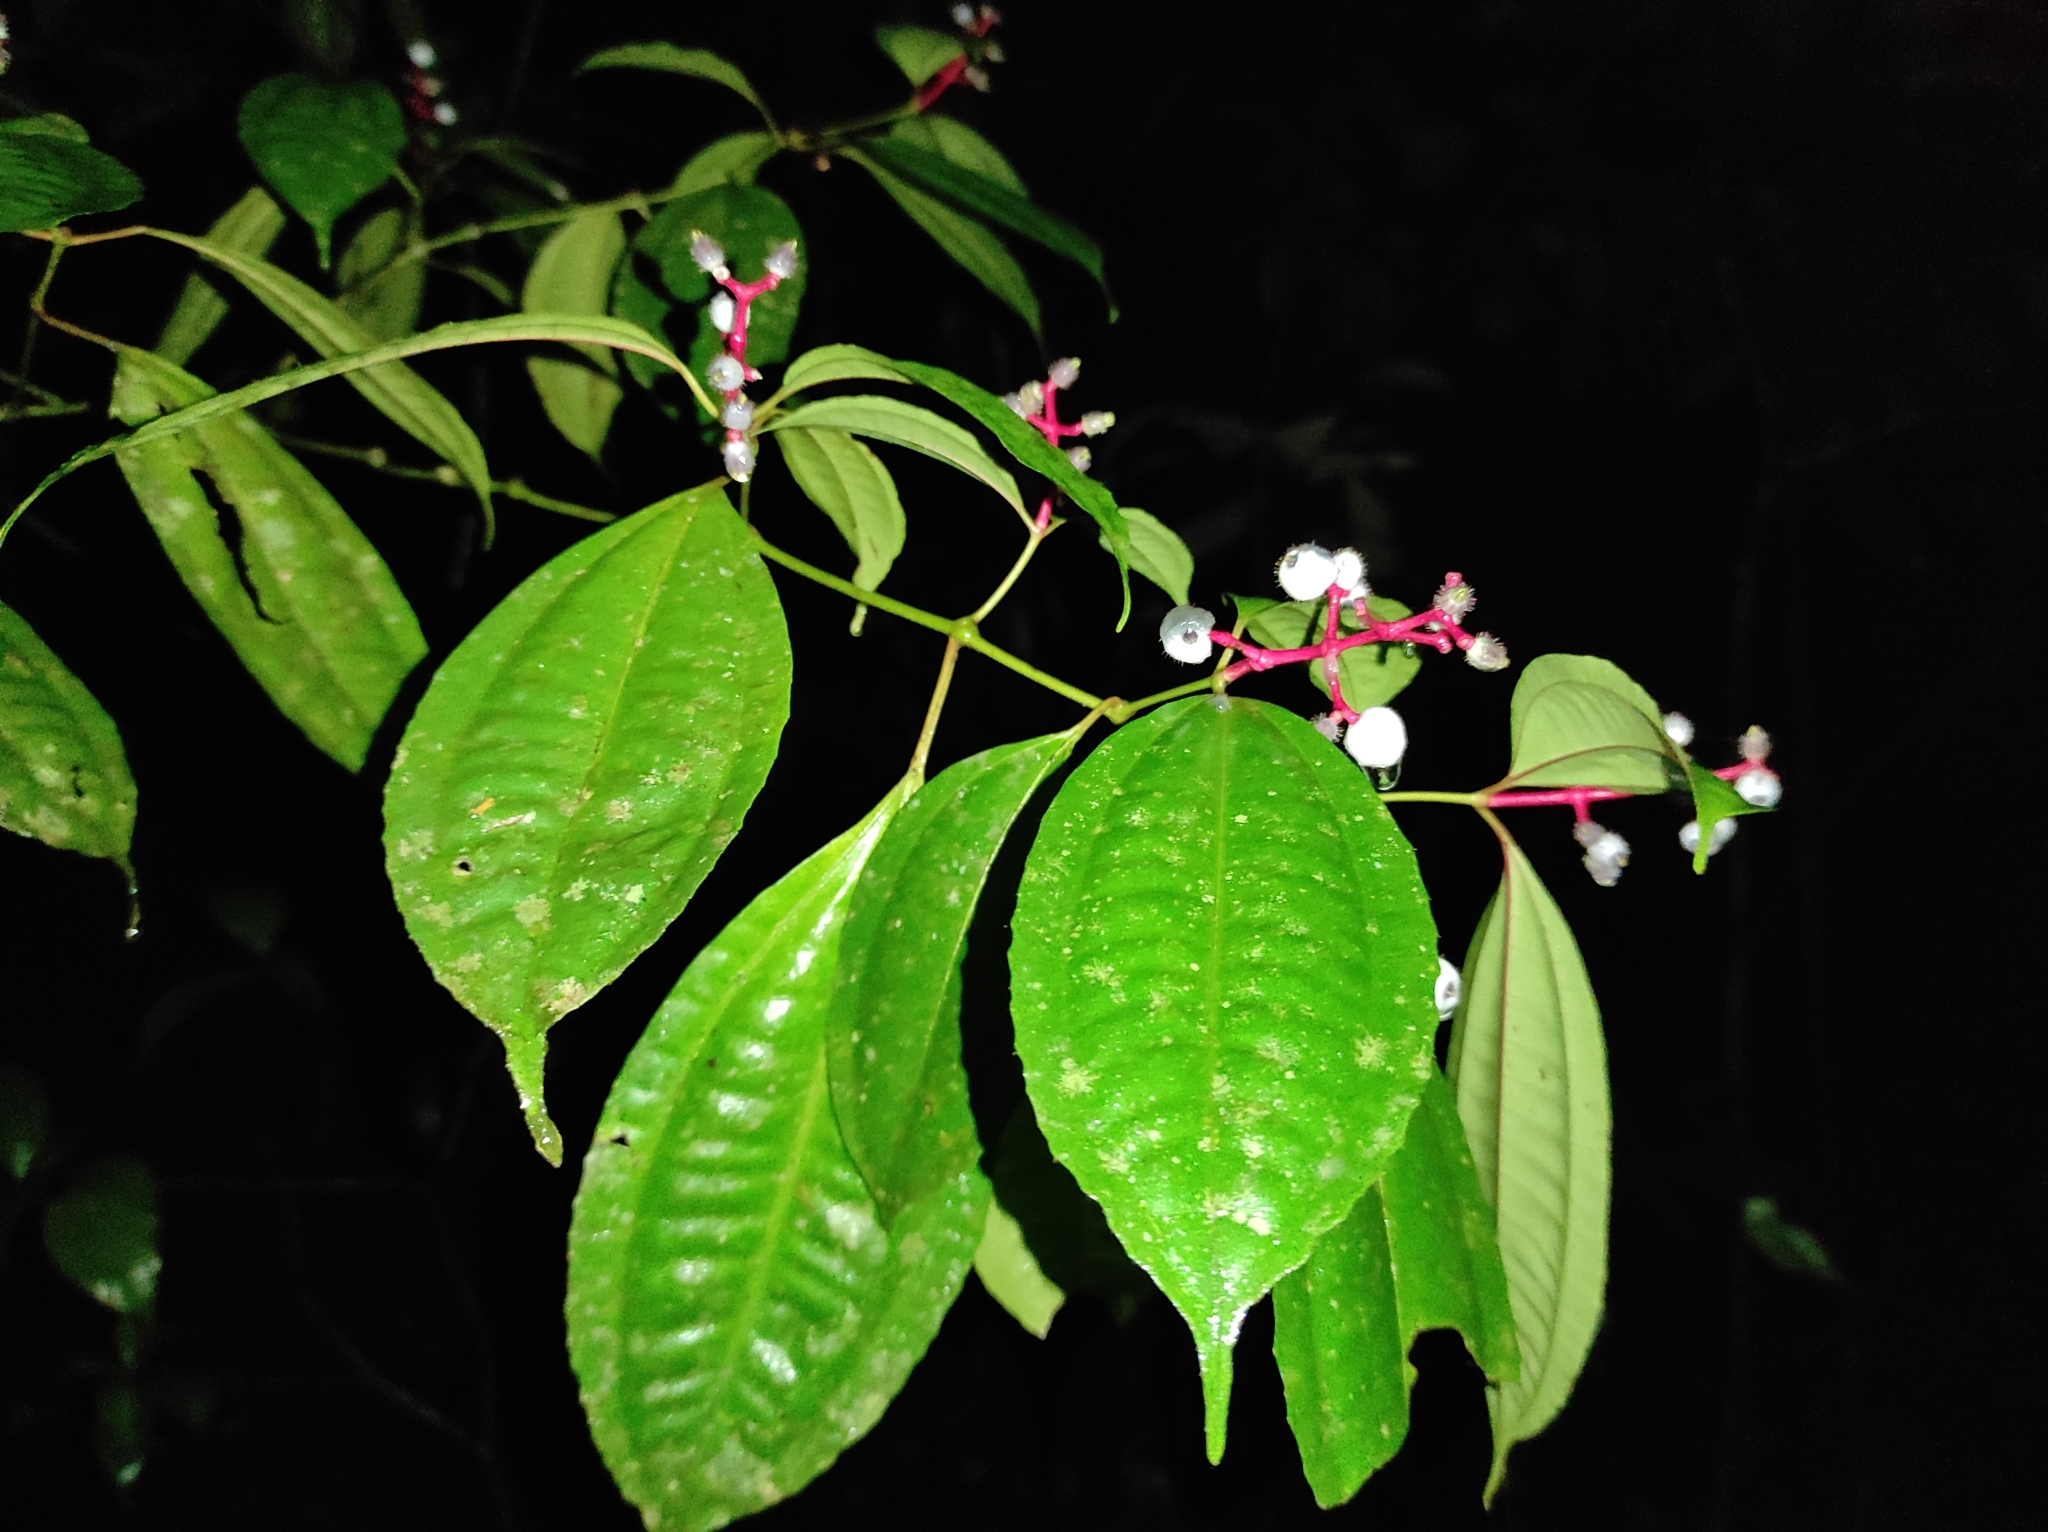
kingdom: Plantae
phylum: Tracheophyta
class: Magnoliopsida
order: Myrtales
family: Melastomataceae
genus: Miconia
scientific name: Miconia lateriflora
